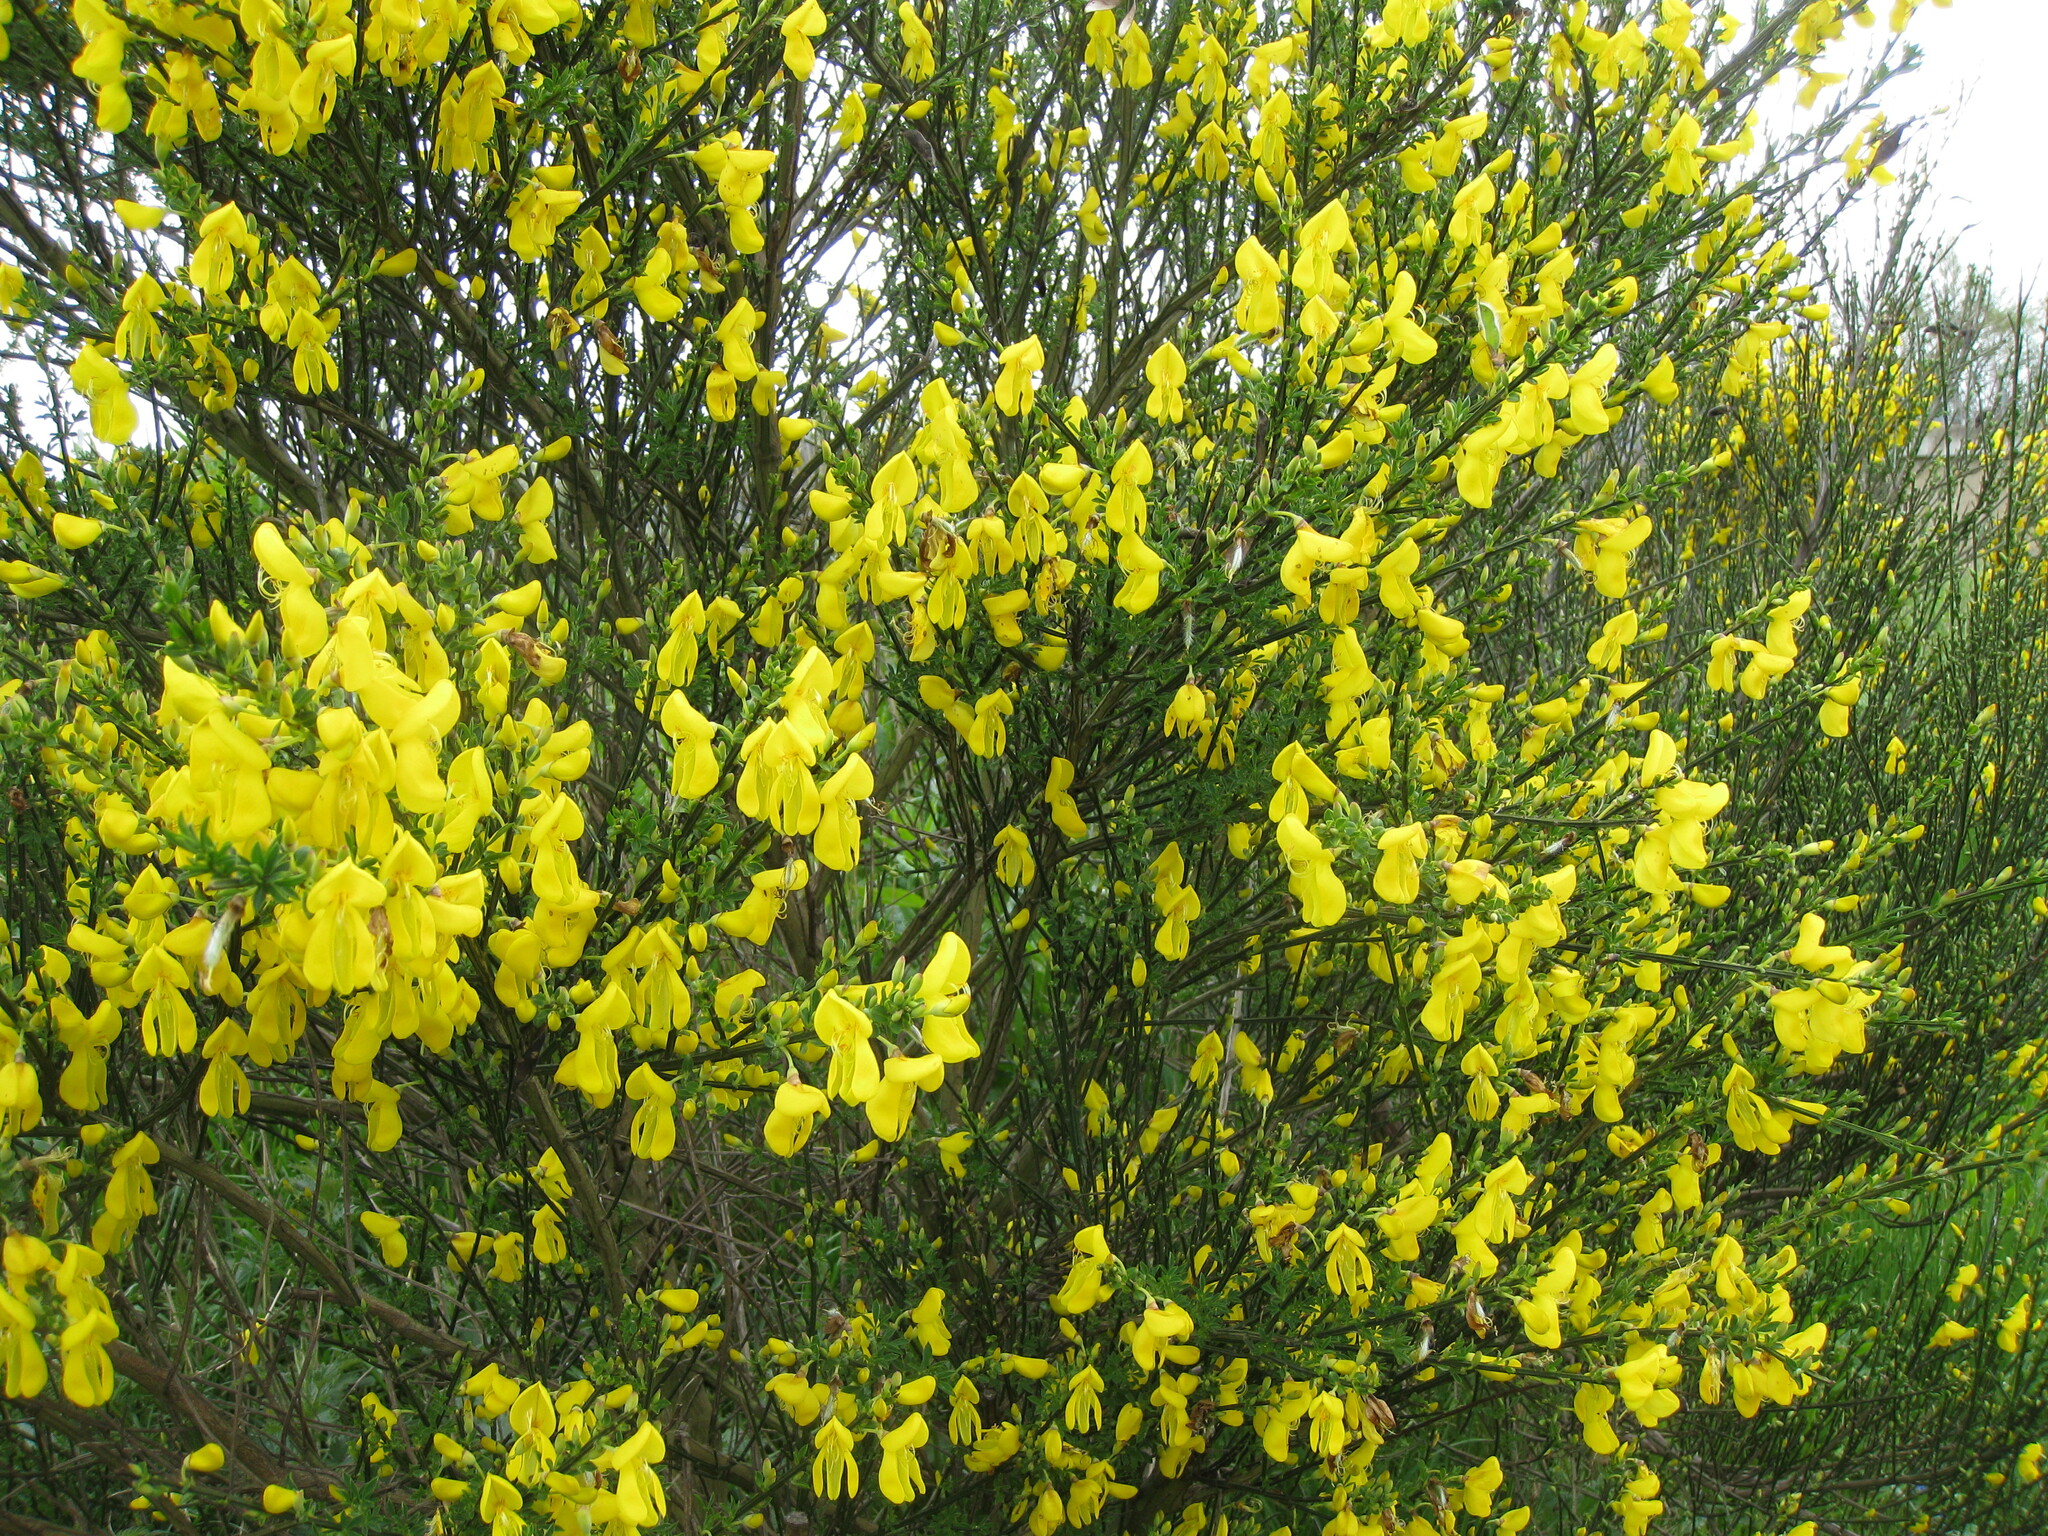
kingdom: Plantae
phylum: Tracheophyta
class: Magnoliopsida
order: Fabales
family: Fabaceae
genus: Cytisus
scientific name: Cytisus scoparius
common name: Scotch broom
